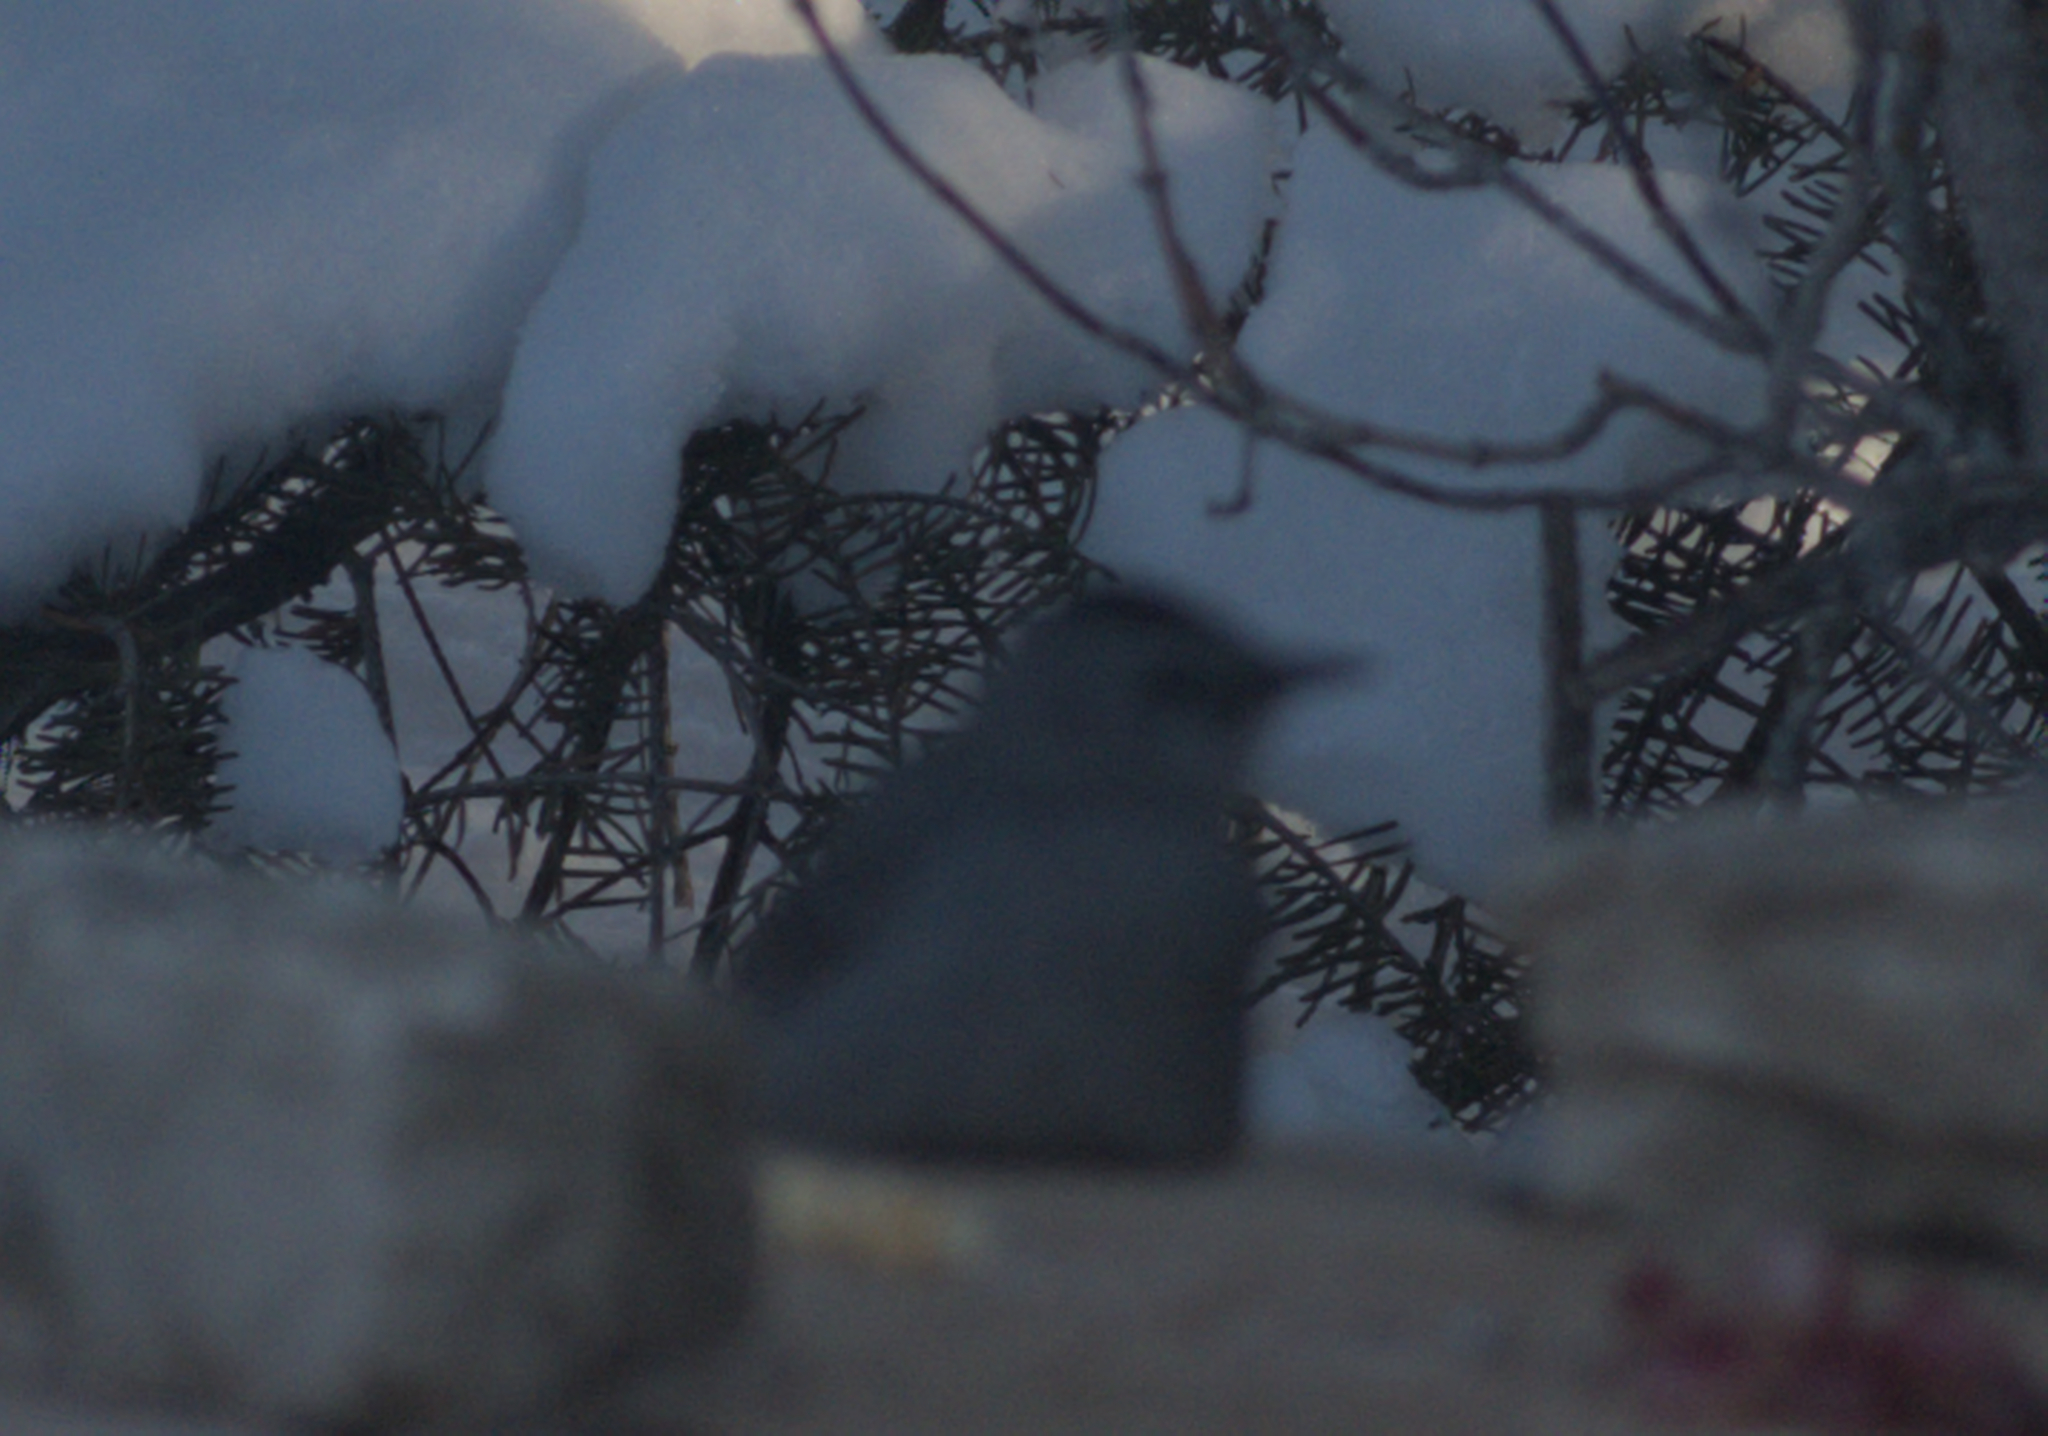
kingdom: Animalia
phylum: Chordata
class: Aves
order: Passeriformes
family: Mimidae
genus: Dumetella
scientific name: Dumetella carolinensis
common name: Gray catbird
